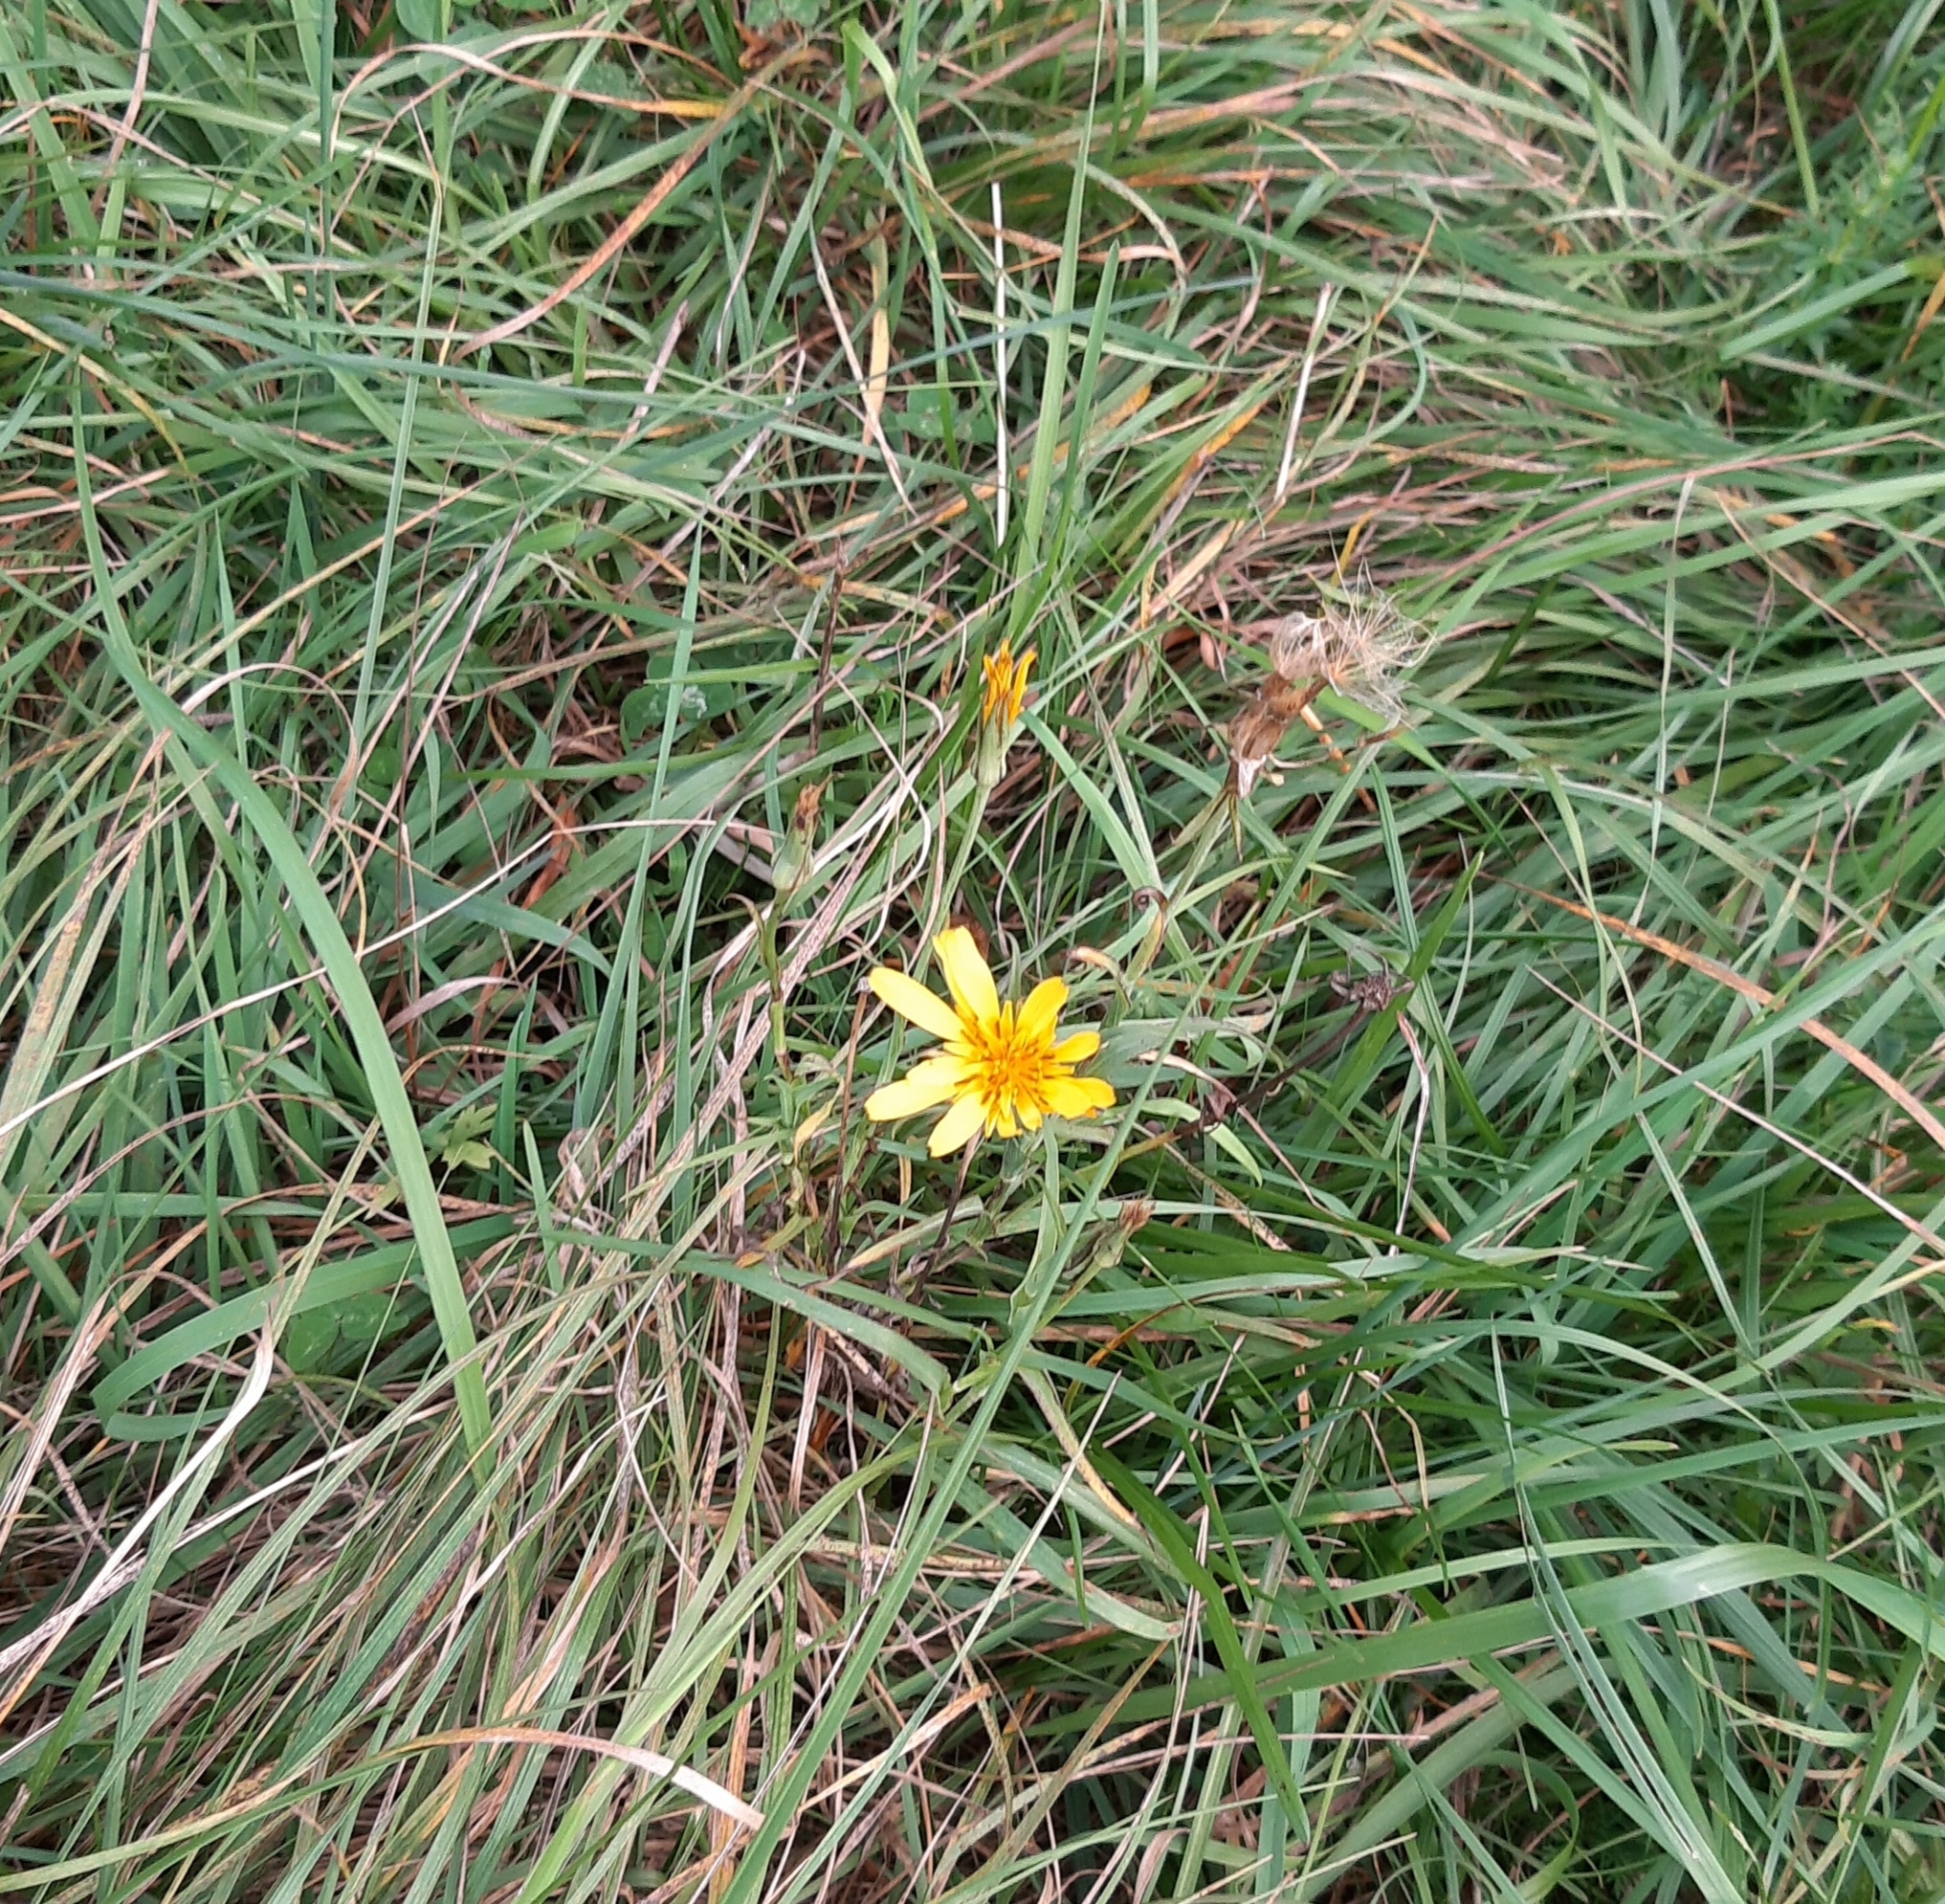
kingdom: Plantae
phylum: Tracheophyta
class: Magnoliopsida
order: Asterales
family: Asteraceae
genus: Tragopogon
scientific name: Tragopogon orientalis
